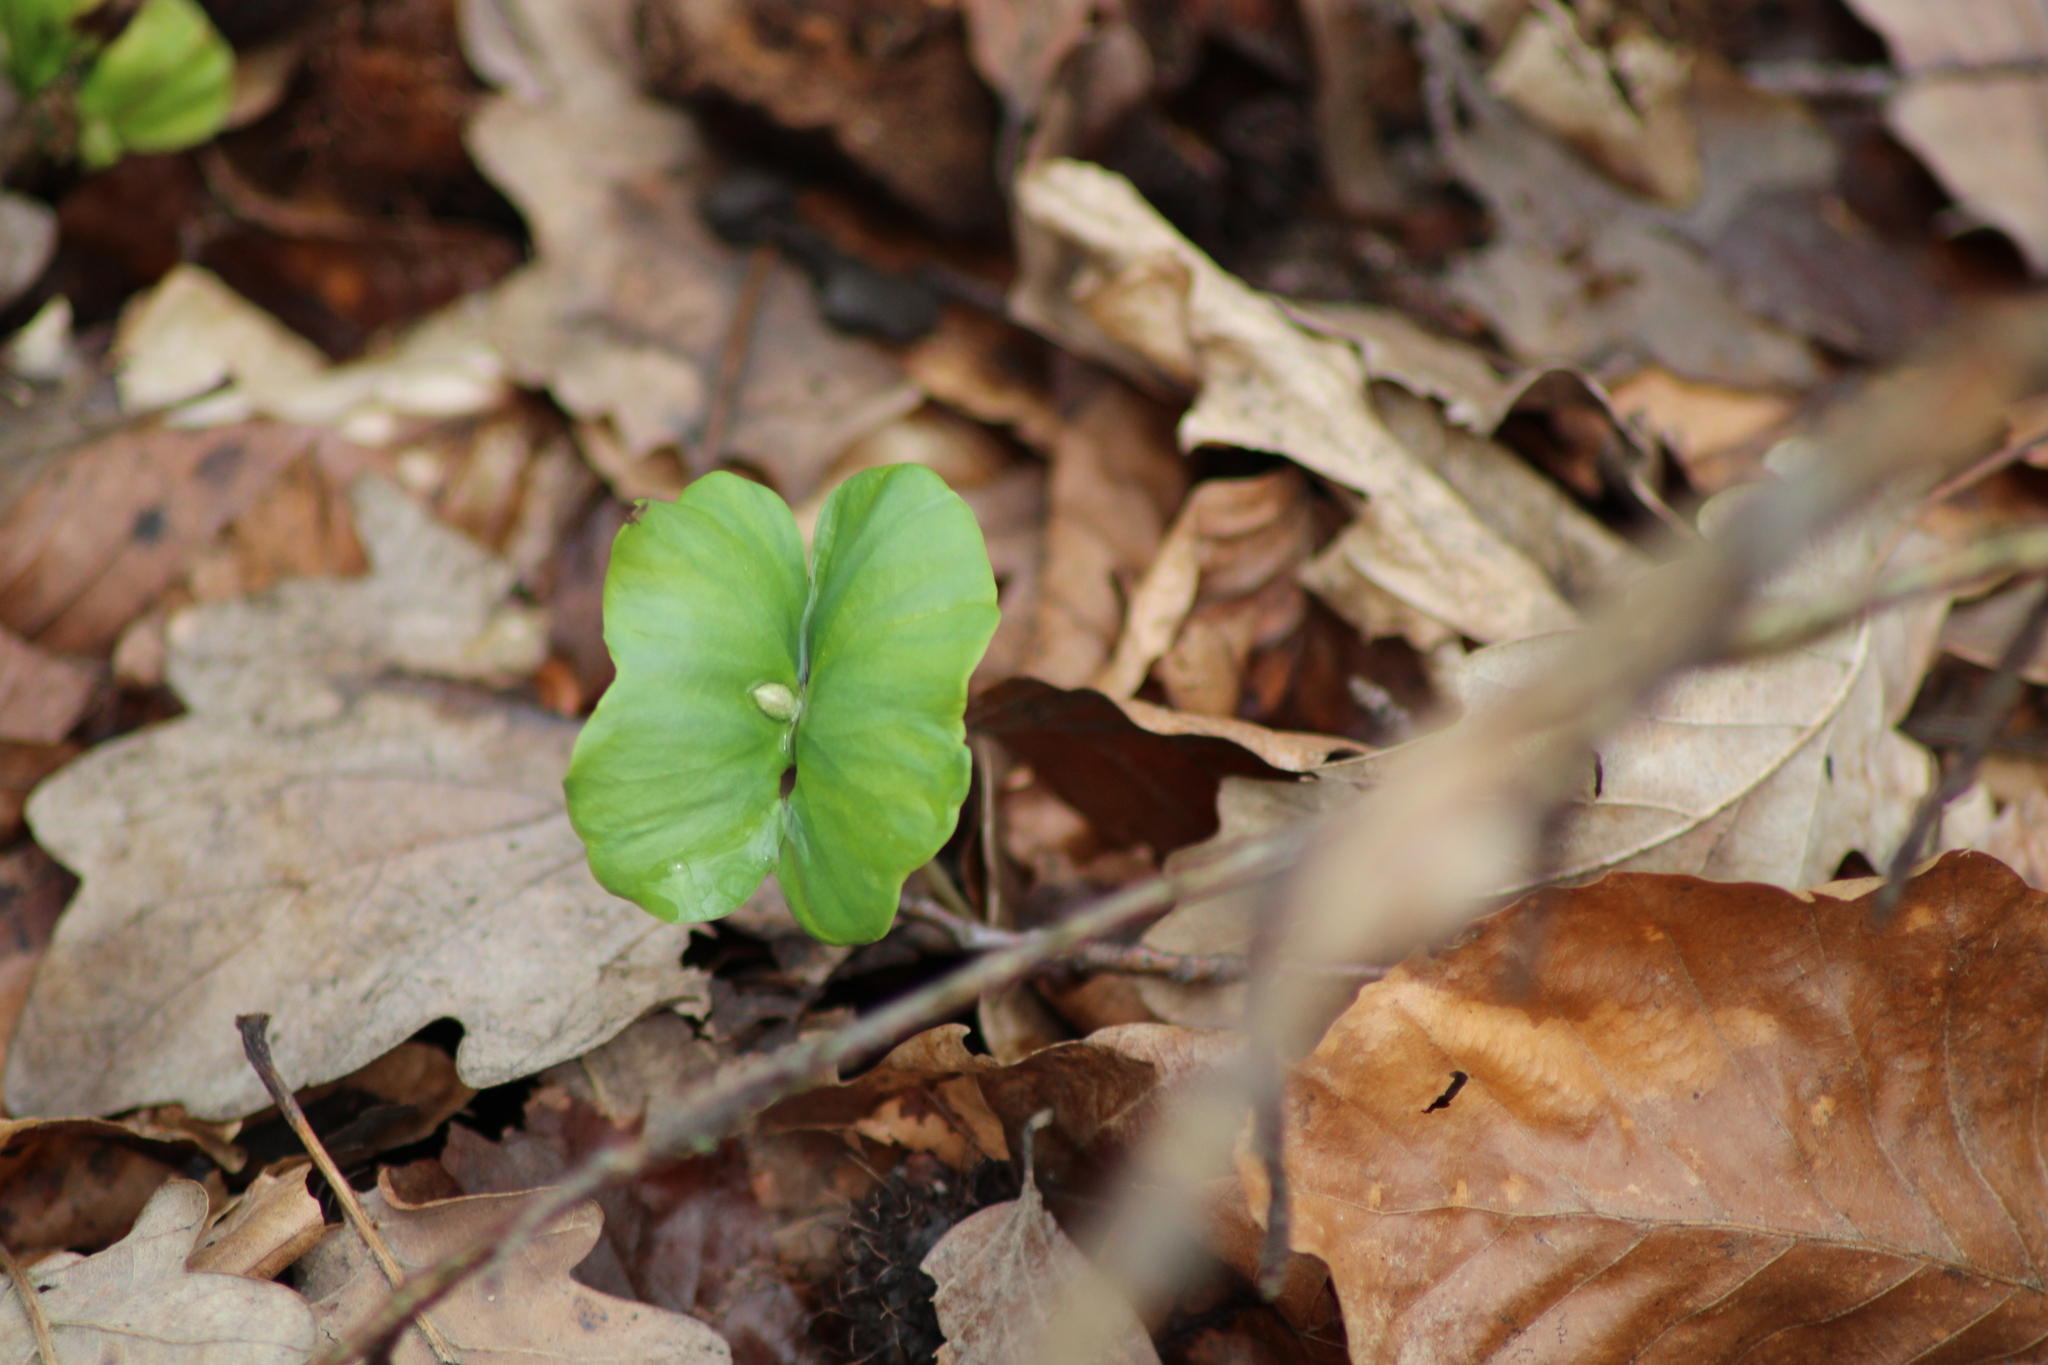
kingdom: Plantae
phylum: Tracheophyta
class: Magnoliopsida
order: Fagales
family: Fagaceae
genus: Fagus
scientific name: Fagus sylvatica
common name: Beech
